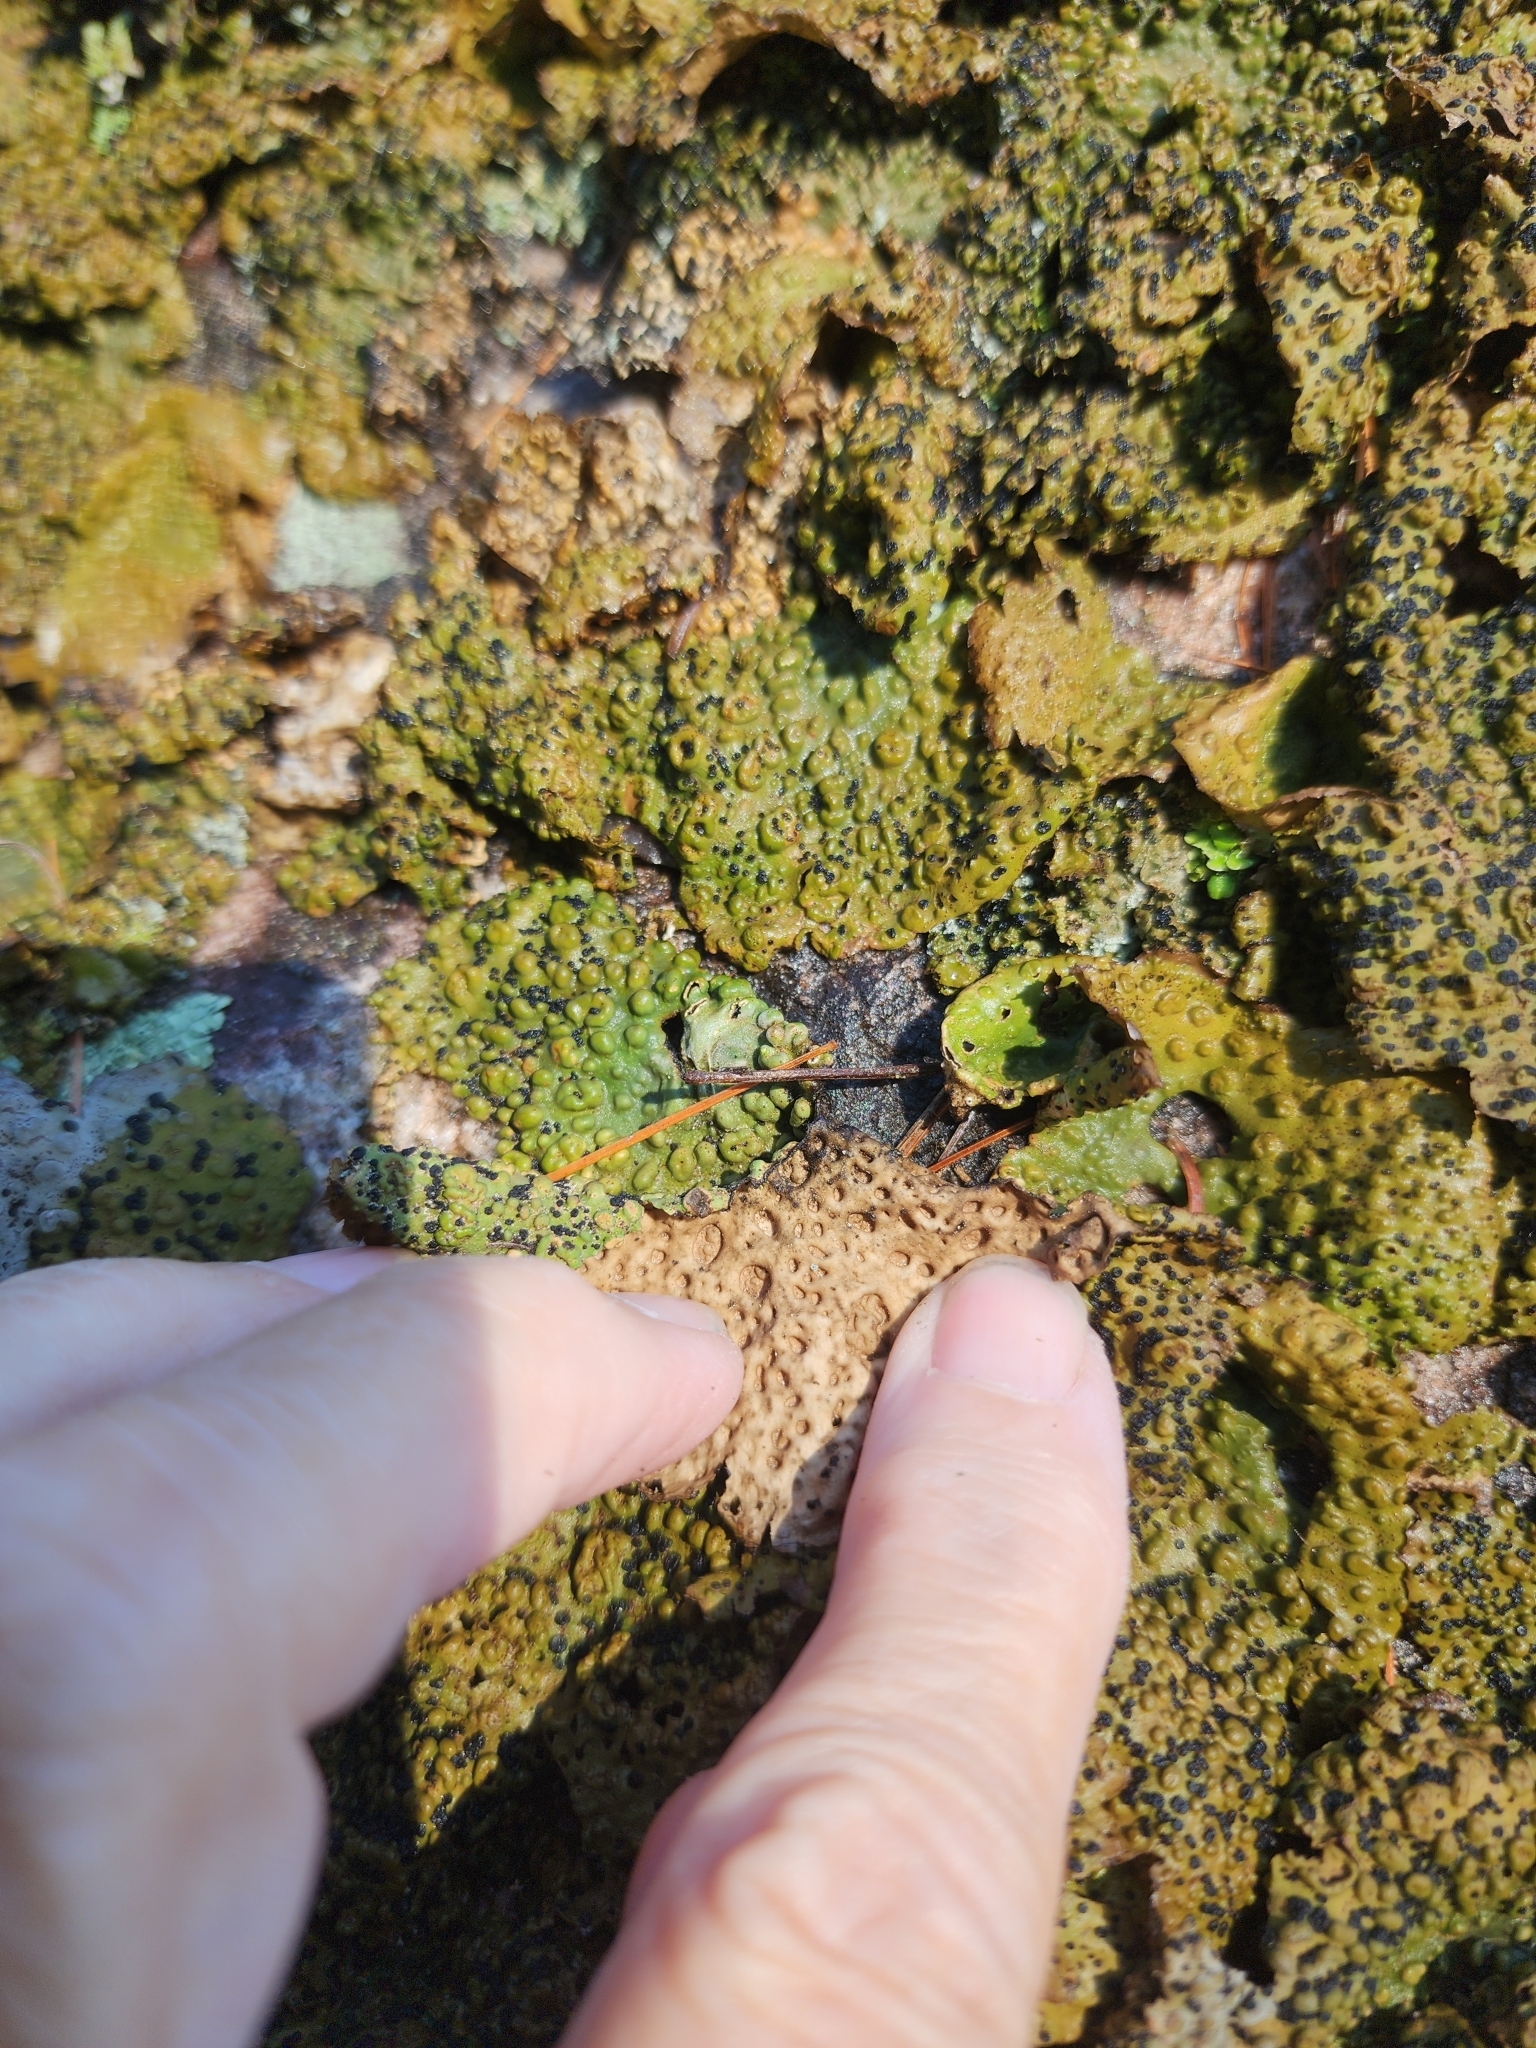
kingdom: Fungi
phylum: Ascomycota
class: Lecanoromycetes
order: Umbilicariales
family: Umbilicariaceae
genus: Lasallia
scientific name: Lasallia papulosa
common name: Common toadskin lichen
